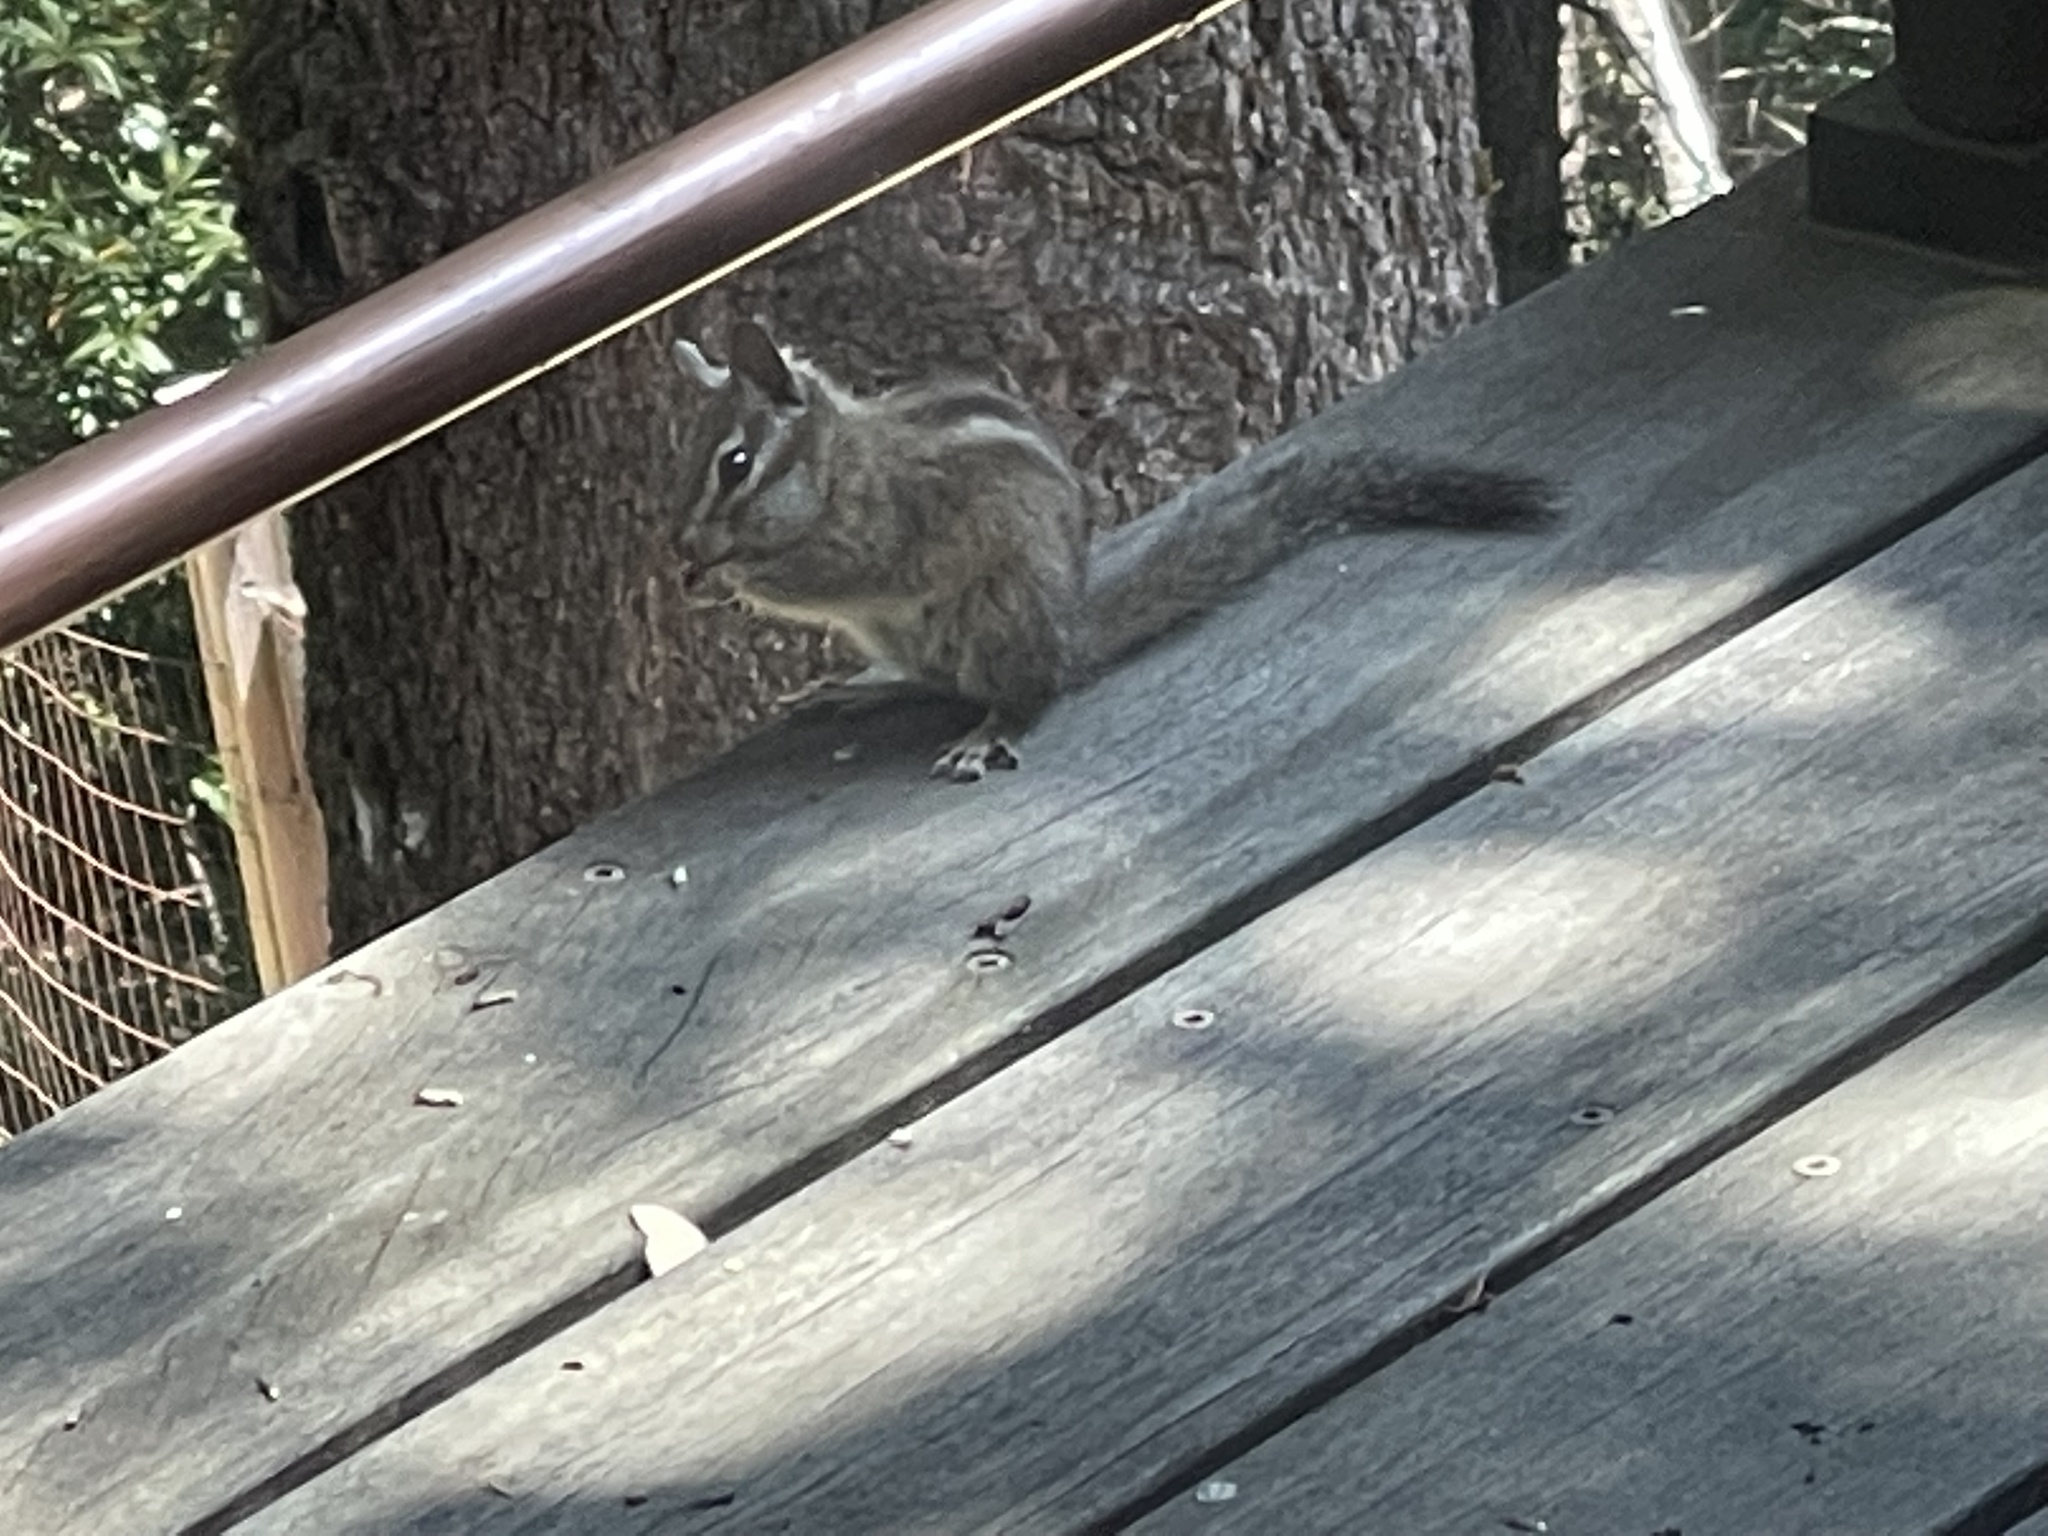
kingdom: Animalia
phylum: Chordata
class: Mammalia
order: Rodentia
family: Sciuridae
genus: Tamias
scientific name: Tamias merriami
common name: Merriam's chipmunk
